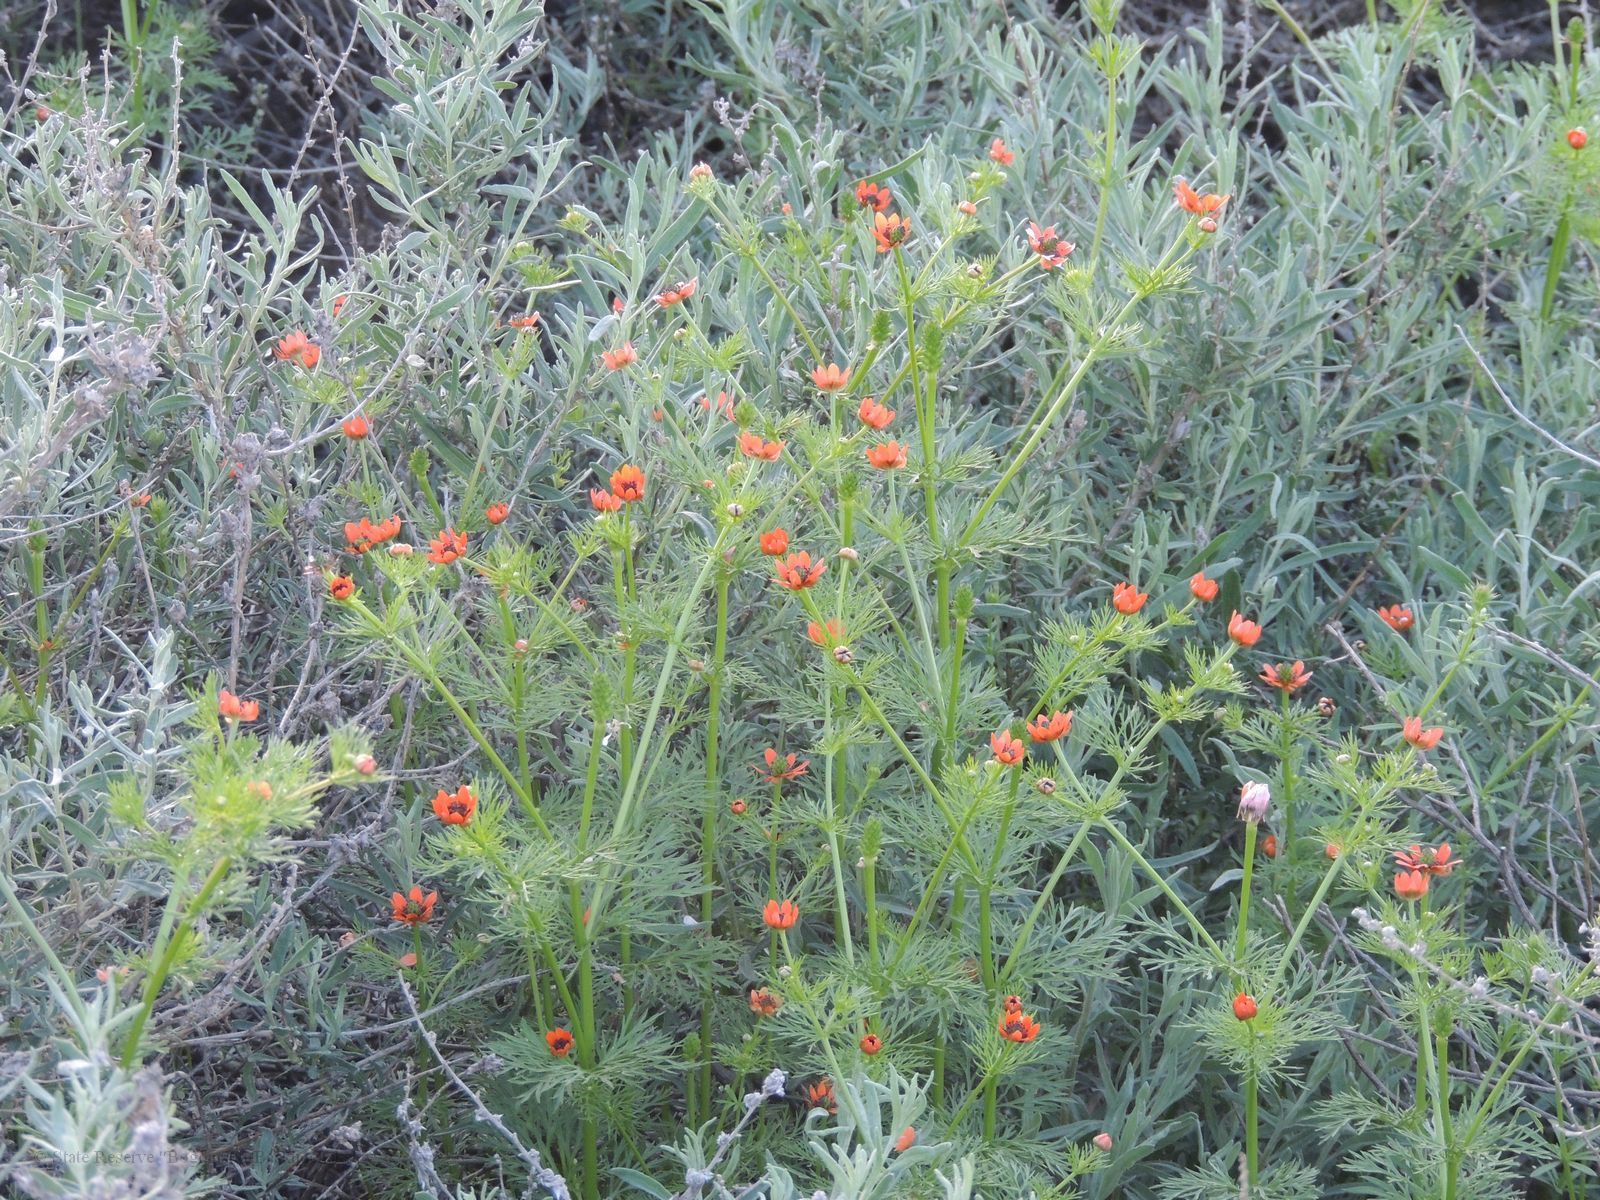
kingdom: Plantae
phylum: Tracheophyta
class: Magnoliopsida
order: Ranunculales
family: Ranunculaceae
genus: Adonis
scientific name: Adonis aestivalis
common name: Summer pheasant's-eye
